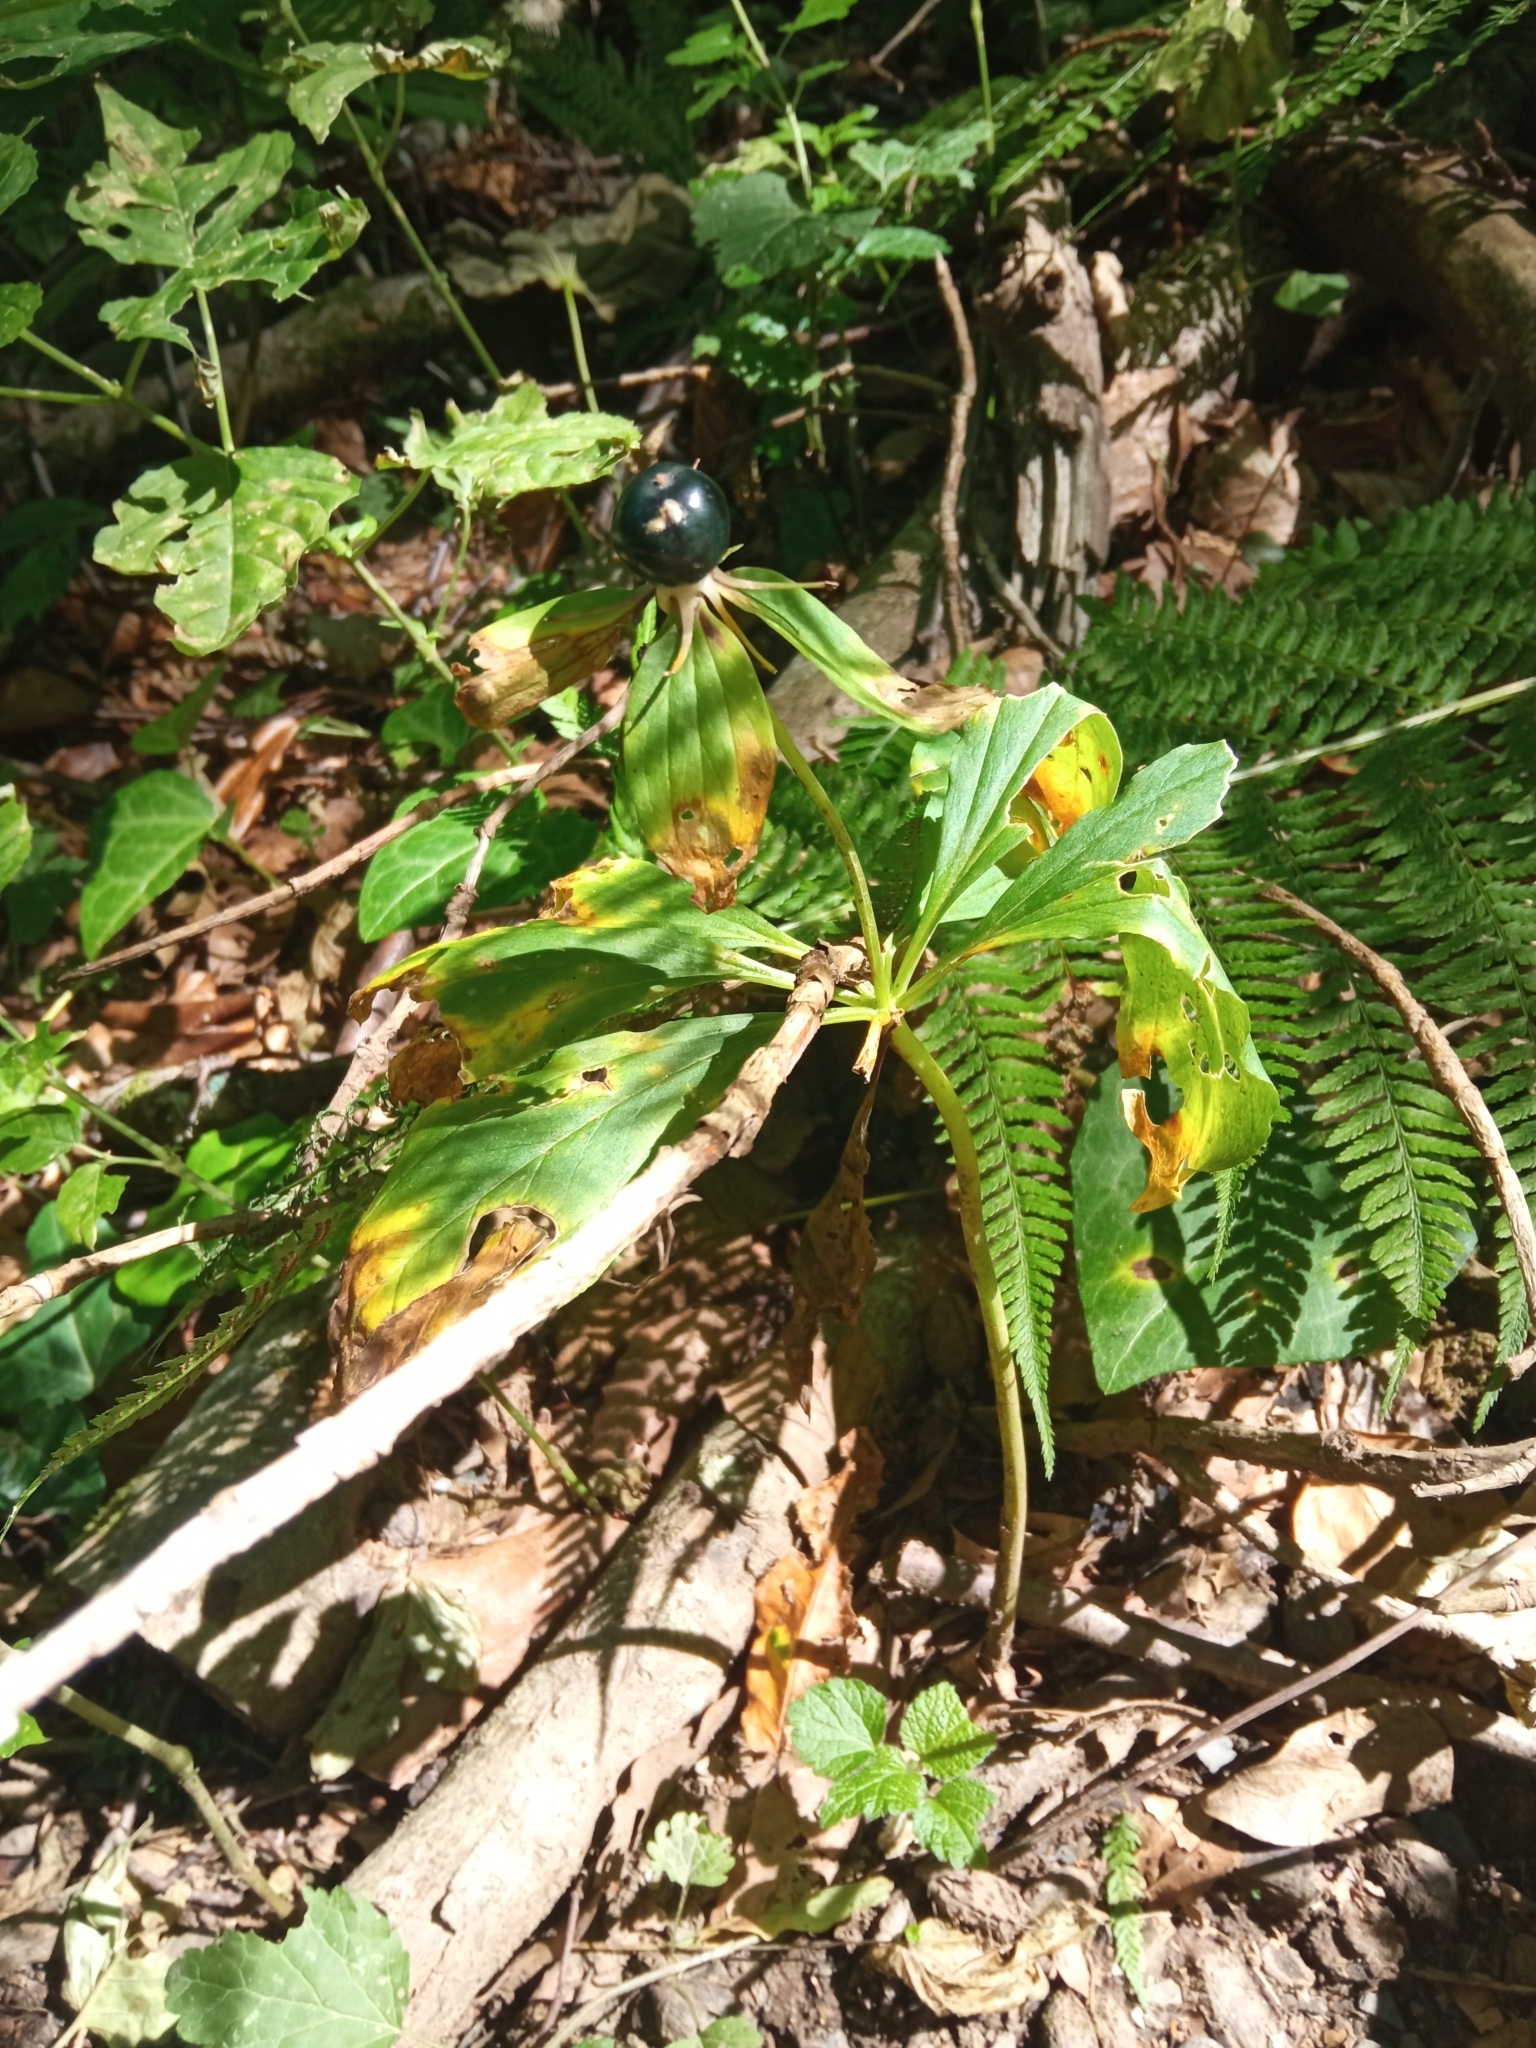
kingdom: Plantae
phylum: Tracheophyta
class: Liliopsida
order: Liliales
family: Melanthiaceae
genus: Paris
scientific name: Paris incompleta
